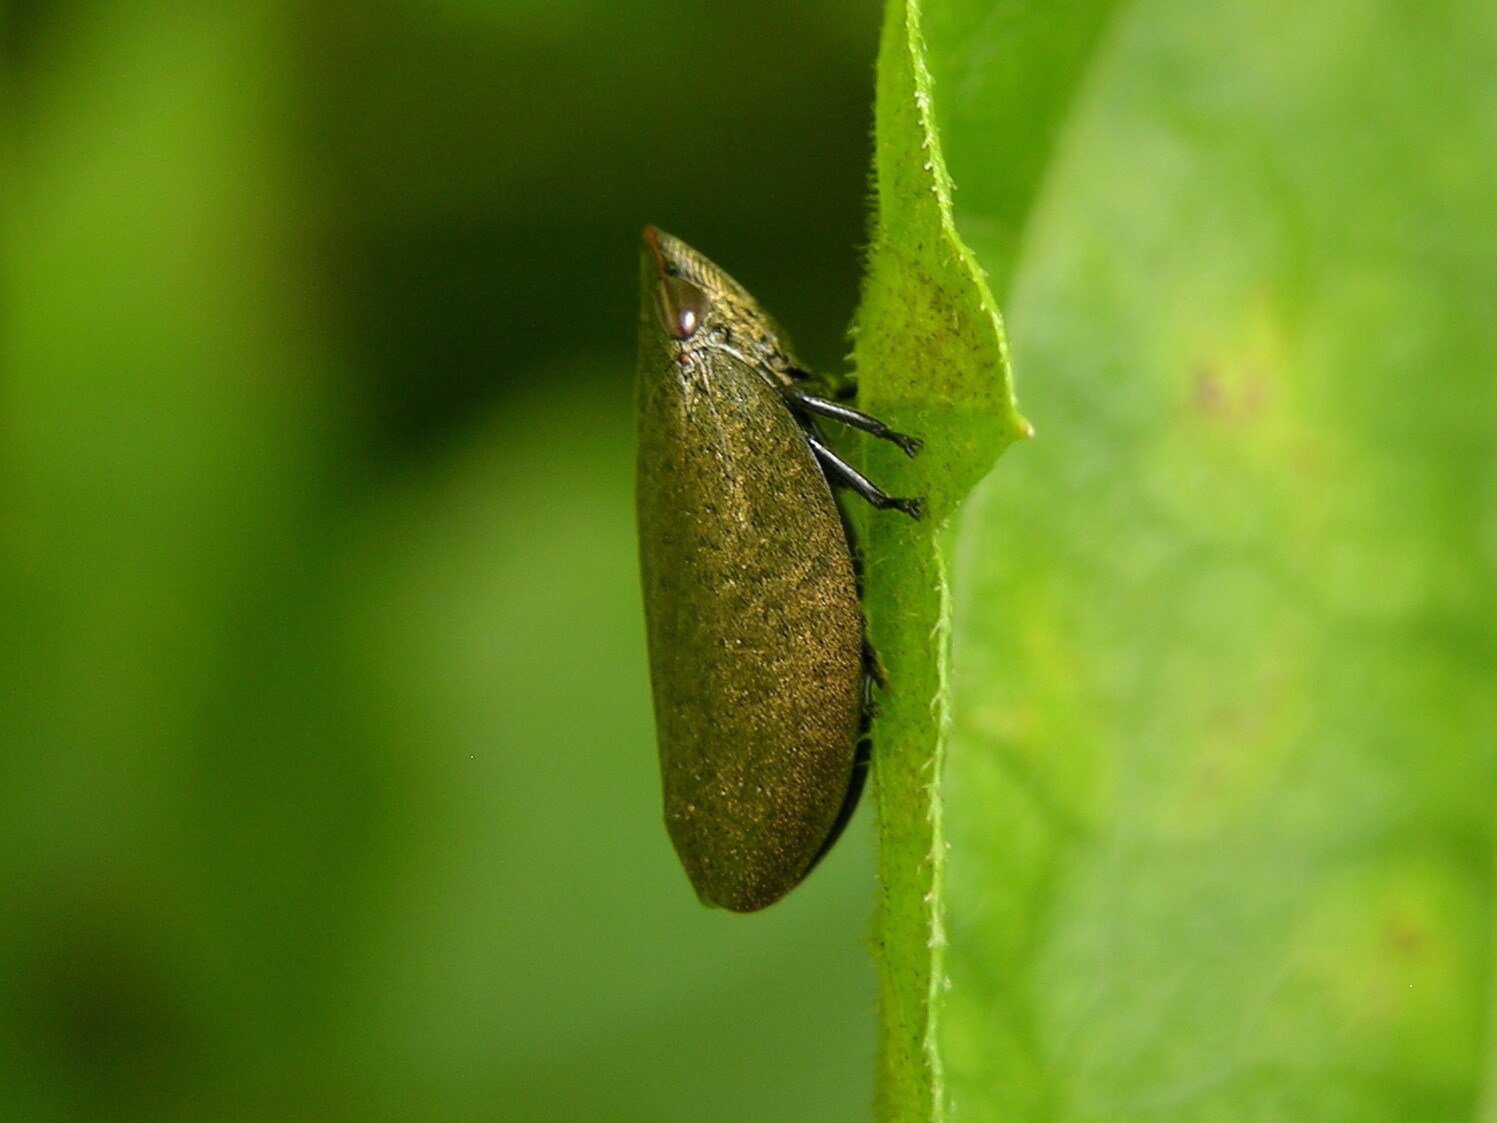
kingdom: Animalia
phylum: Arthropoda
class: Insecta
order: Hemiptera
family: Aphrophoridae
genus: Plinia
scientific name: Plinia ampla
